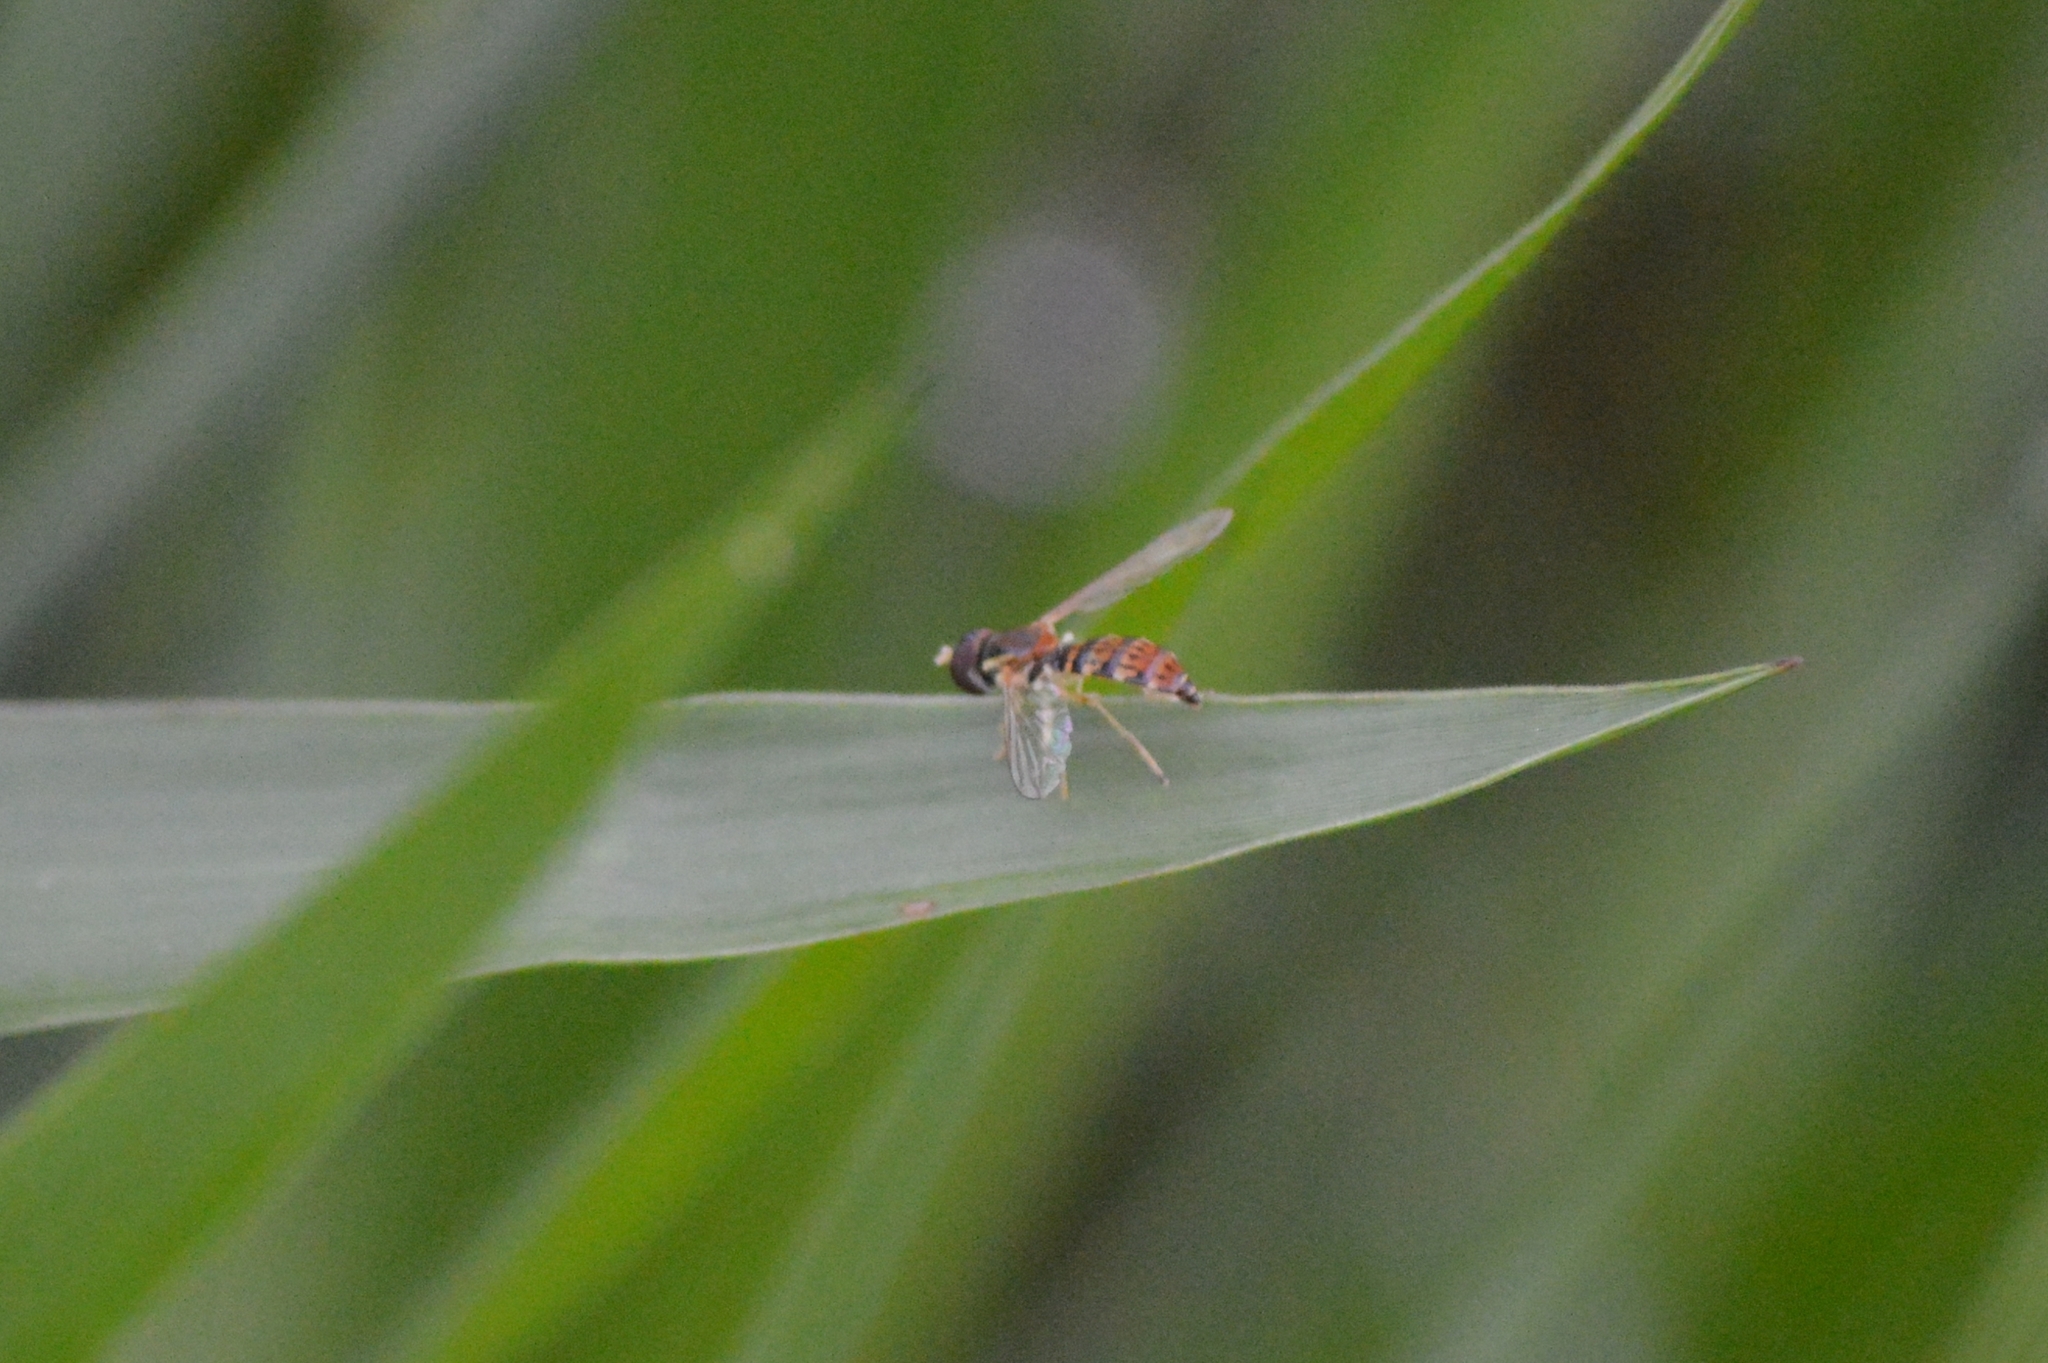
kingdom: Animalia
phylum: Arthropoda
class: Insecta
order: Diptera
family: Syrphidae
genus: Toxomerus
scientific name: Toxomerus
